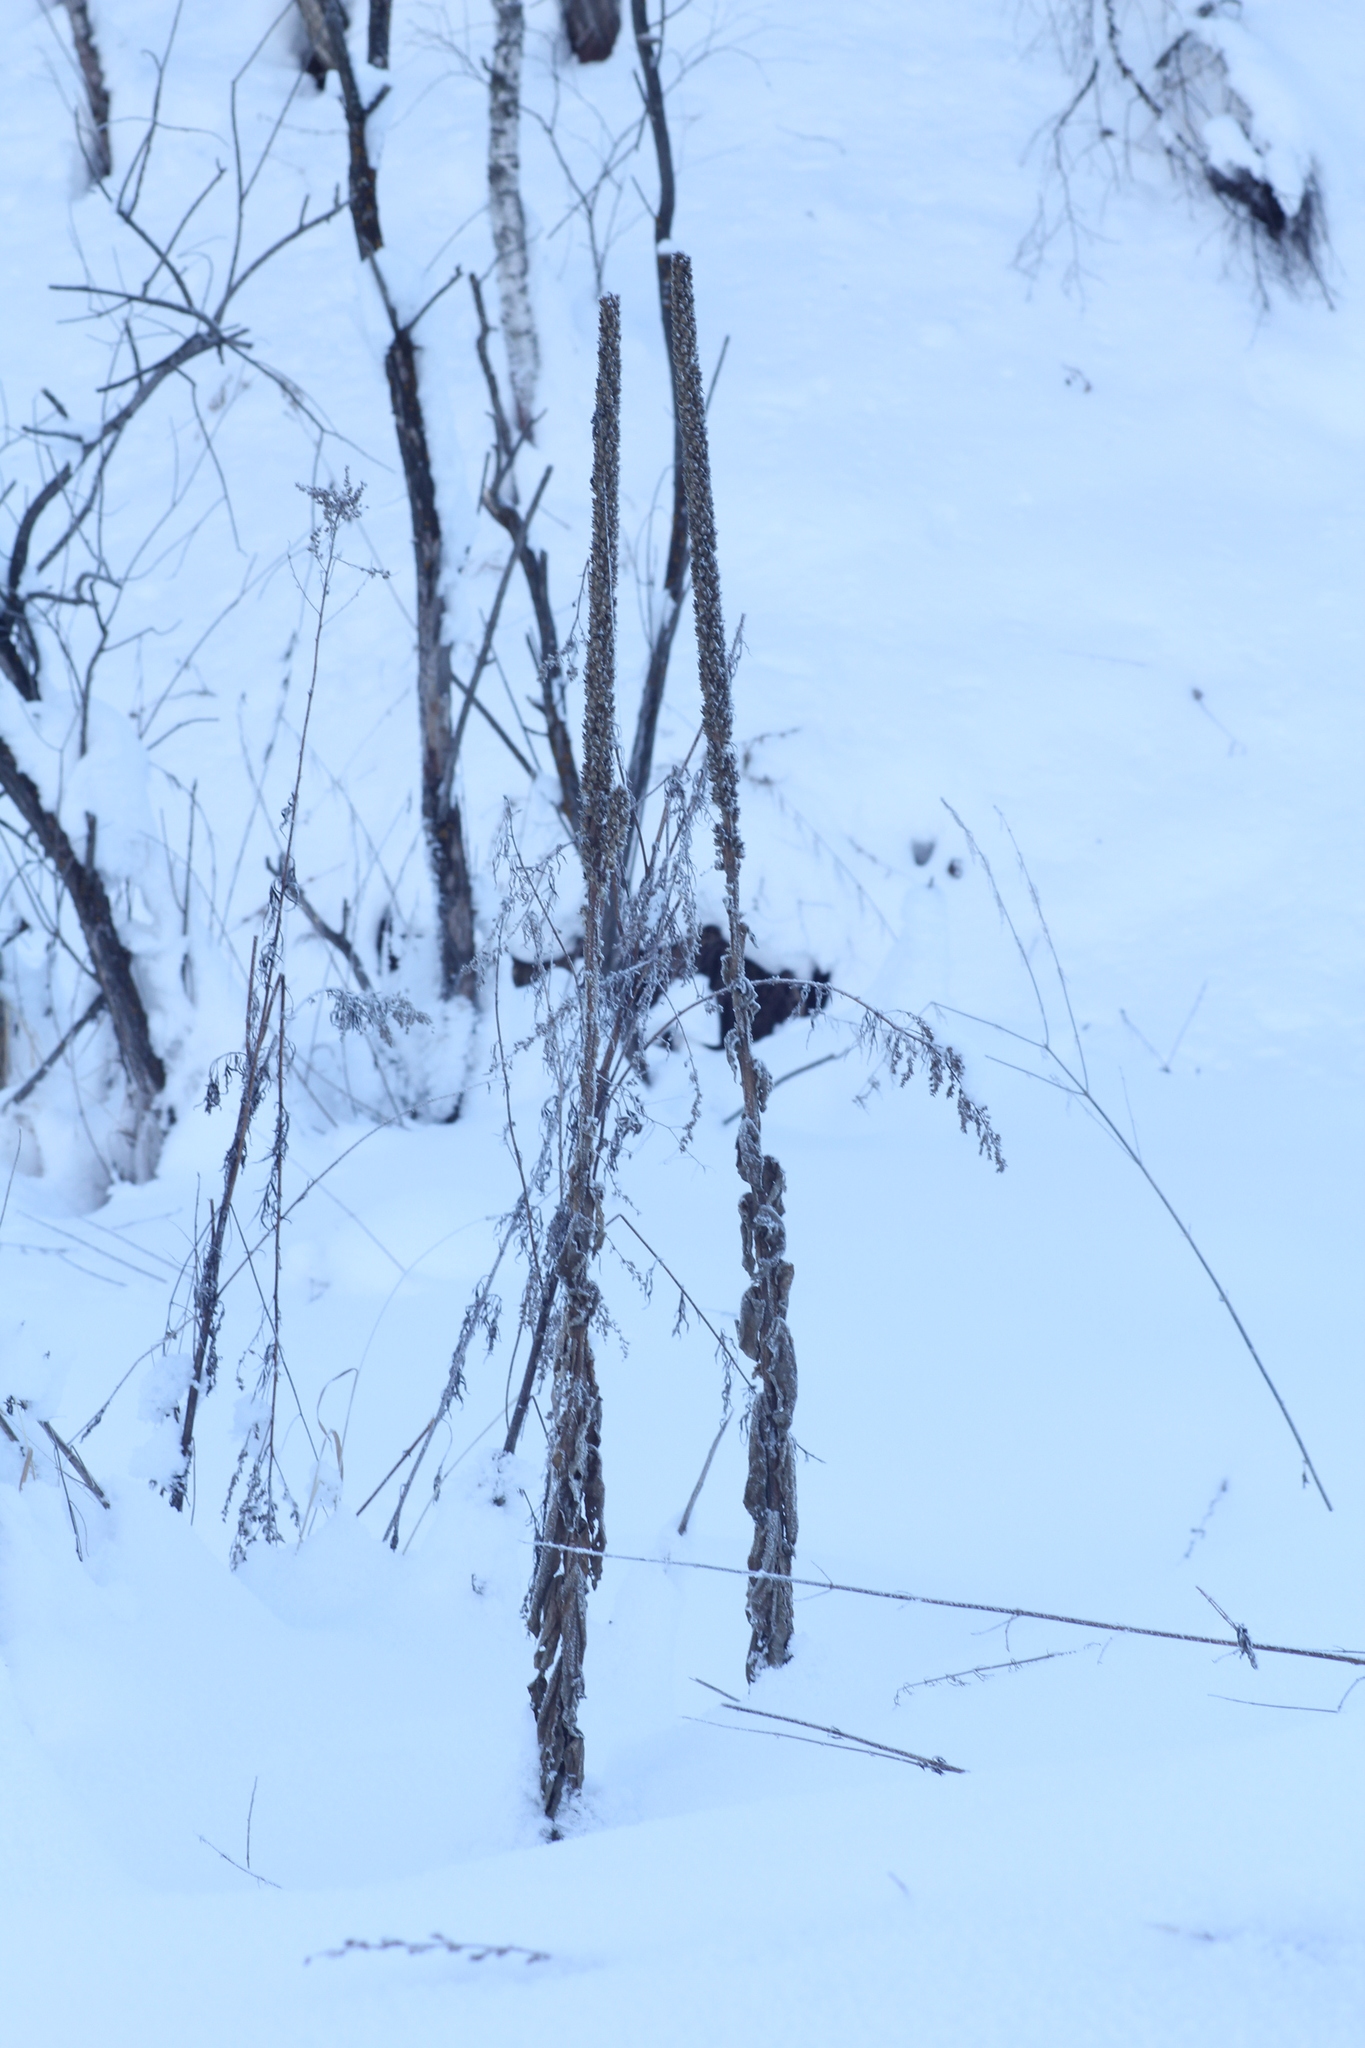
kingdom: Plantae
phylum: Tracheophyta
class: Magnoliopsida
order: Lamiales
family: Scrophulariaceae
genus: Verbascum
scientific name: Verbascum thapsus
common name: Common mullein
